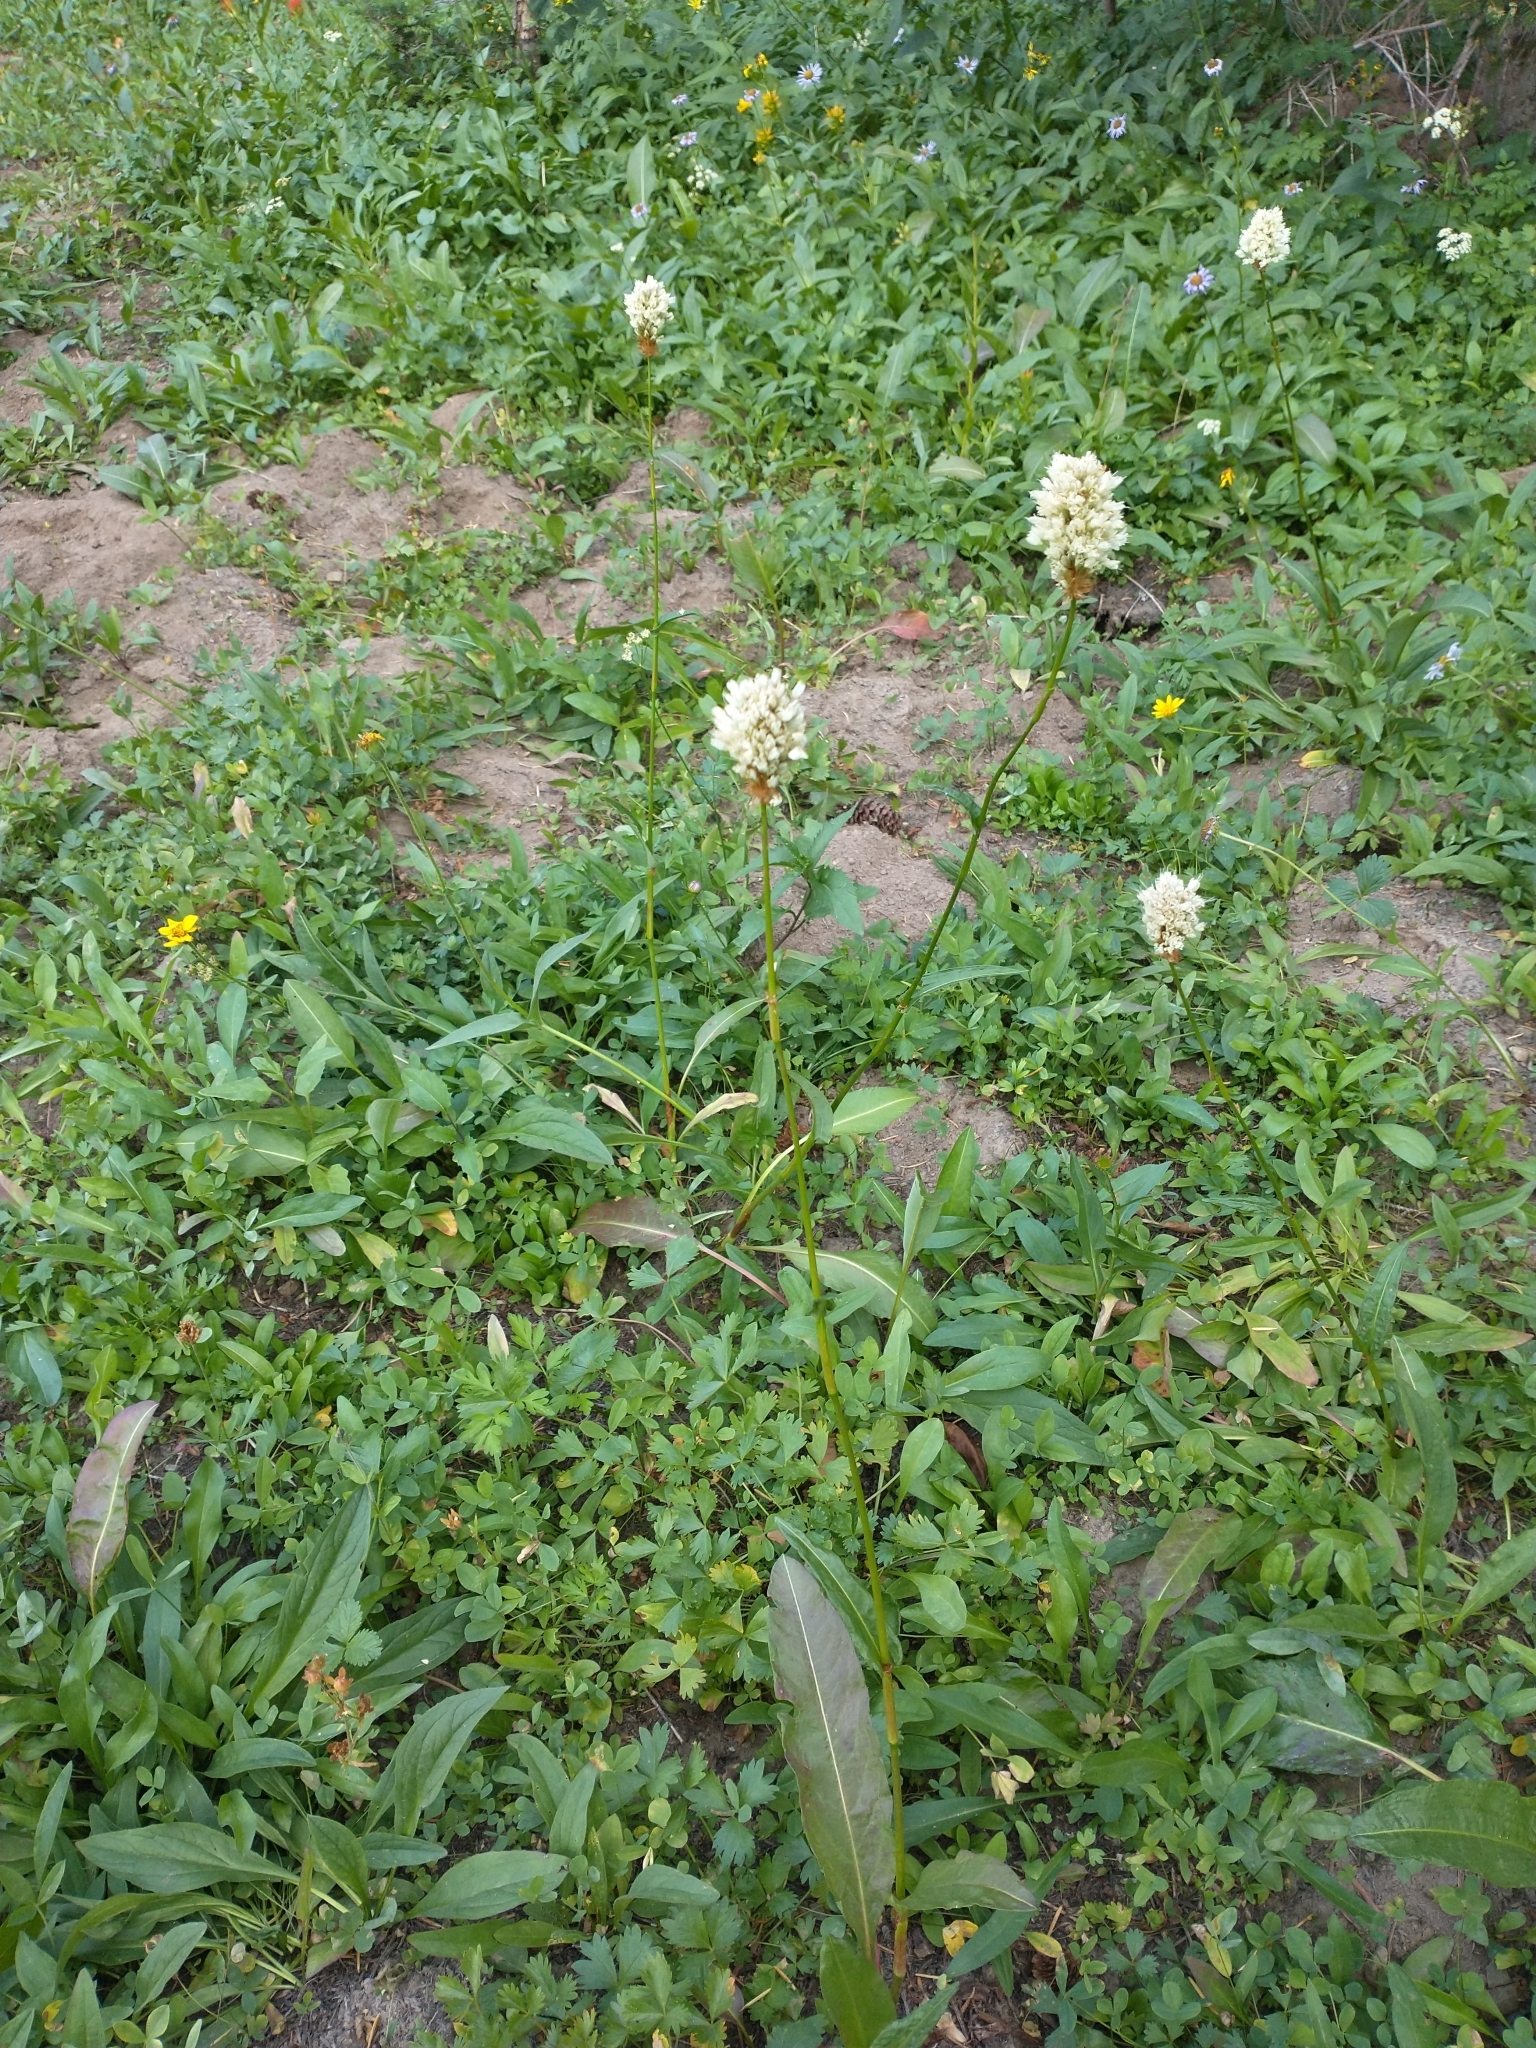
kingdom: Plantae
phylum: Tracheophyta
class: Magnoliopsida
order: Caryophyllales
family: Polygonaceae
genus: Bistorta
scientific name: Bistorta bistortoides
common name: American bistort
